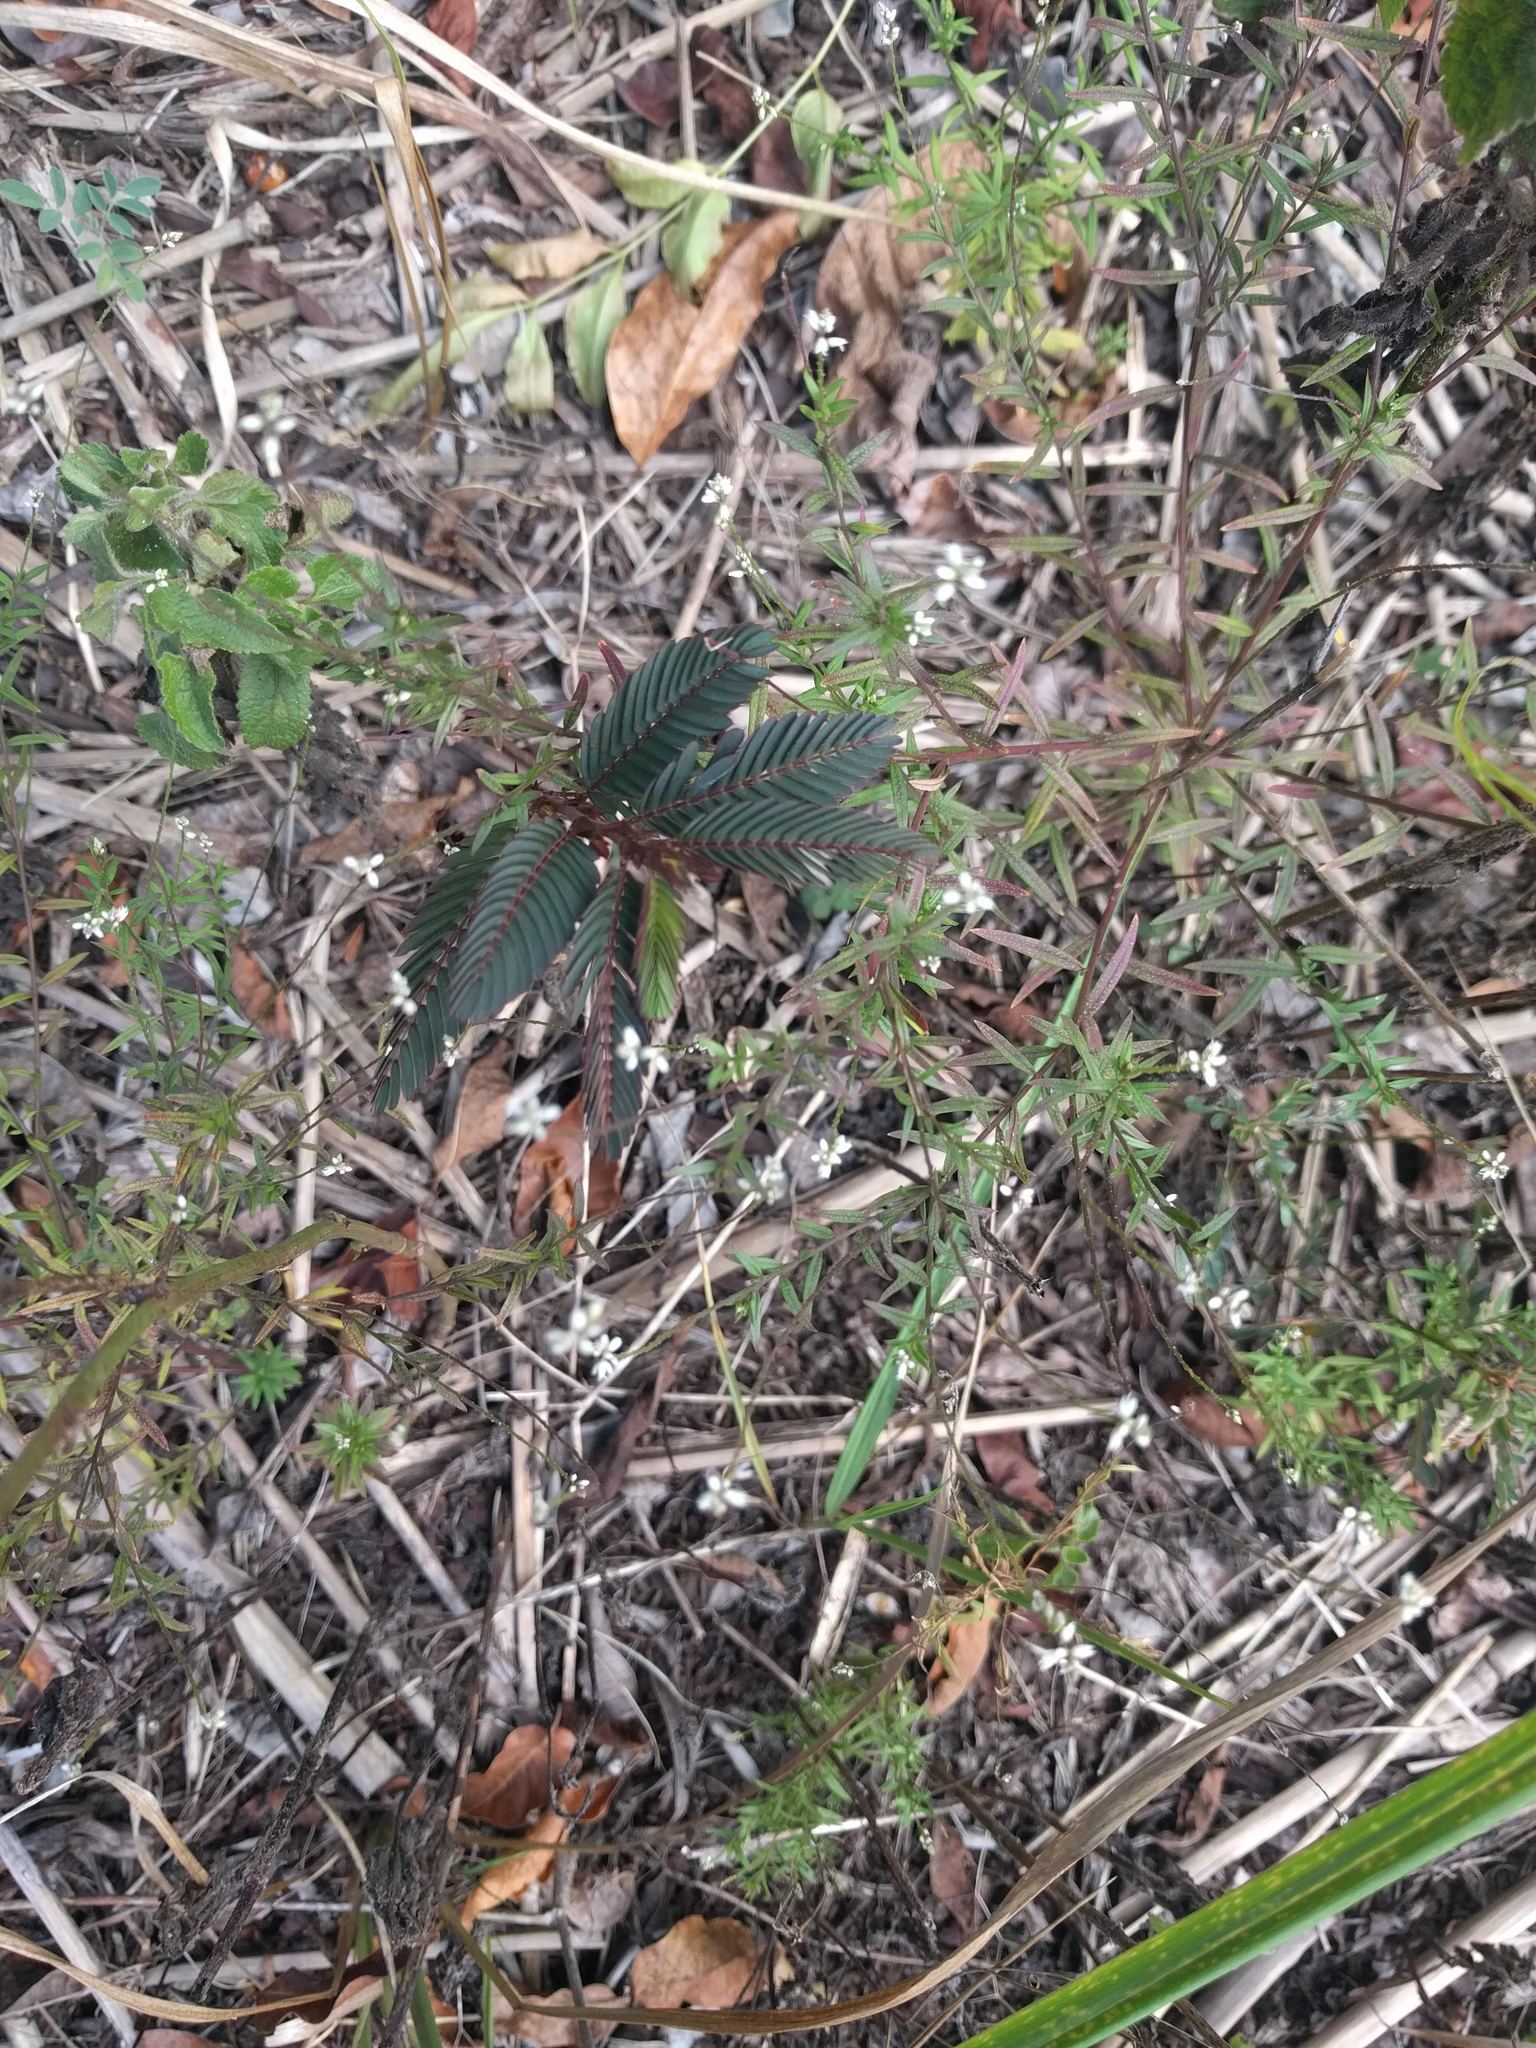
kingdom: Plantae
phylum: Tracheophyta
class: Magnoliopsida
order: Fabales
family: Fabaceae
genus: Chamaecrista
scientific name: Chamaecrista nictitans
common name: Sensitive cassia
